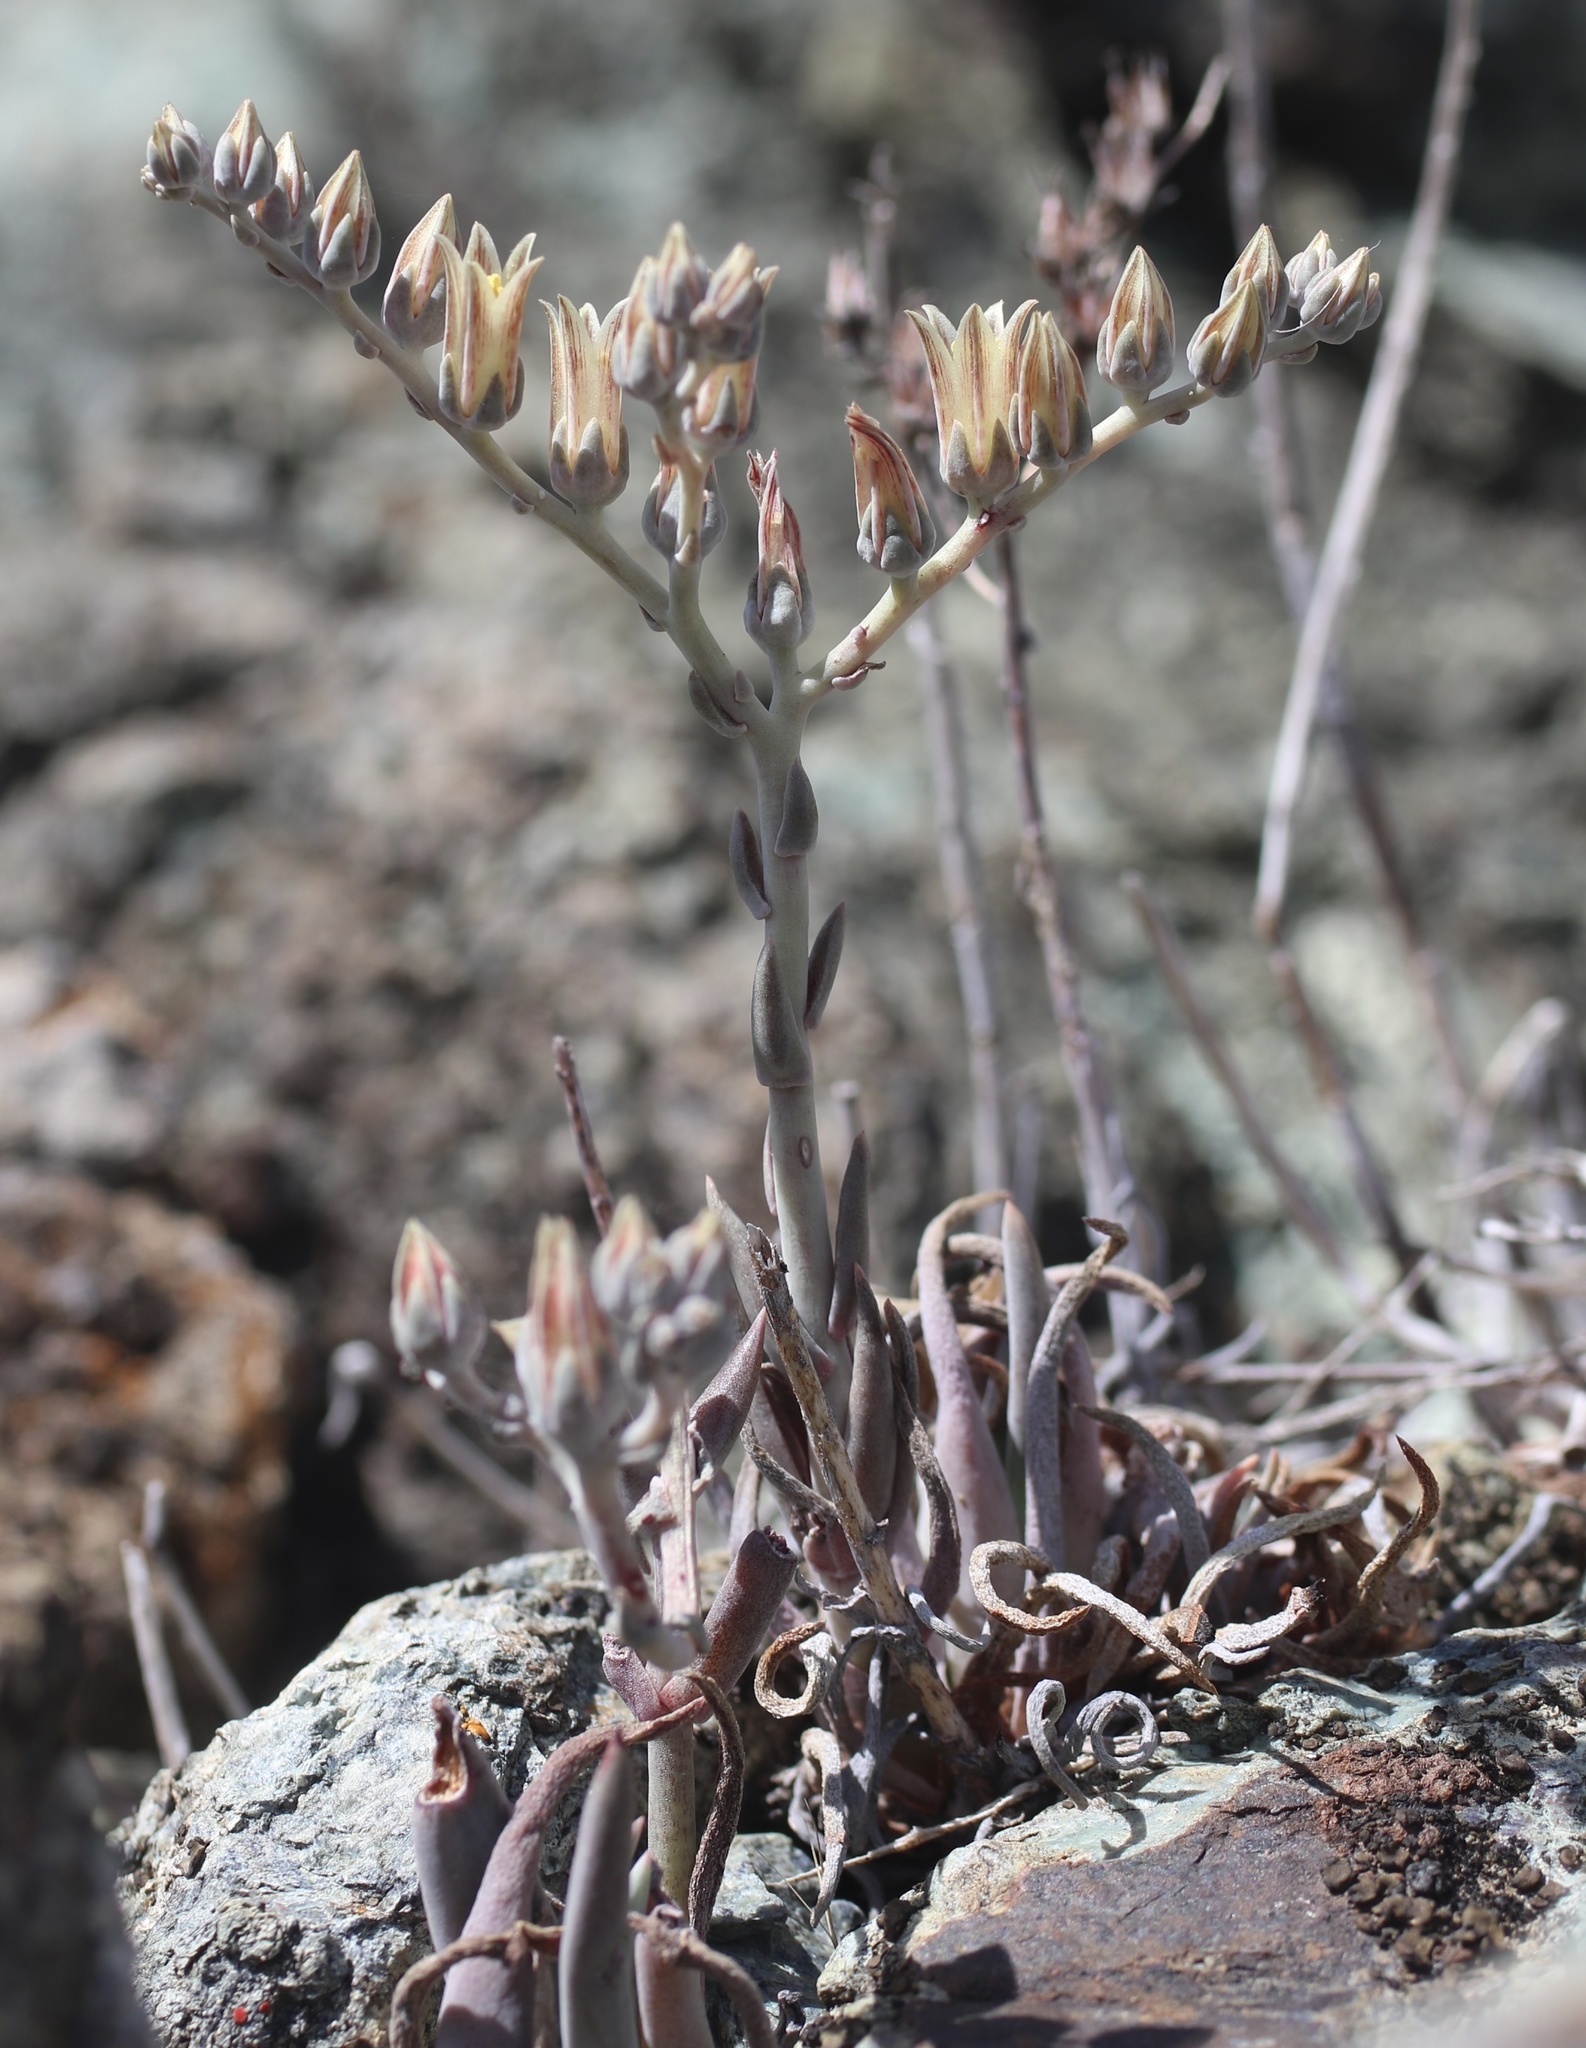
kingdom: Plantae
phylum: Tracheophyta
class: Magnoliopsida
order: Saxifragales
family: Crassulaceae
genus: Dudleya
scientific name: Dudleya abramsii
